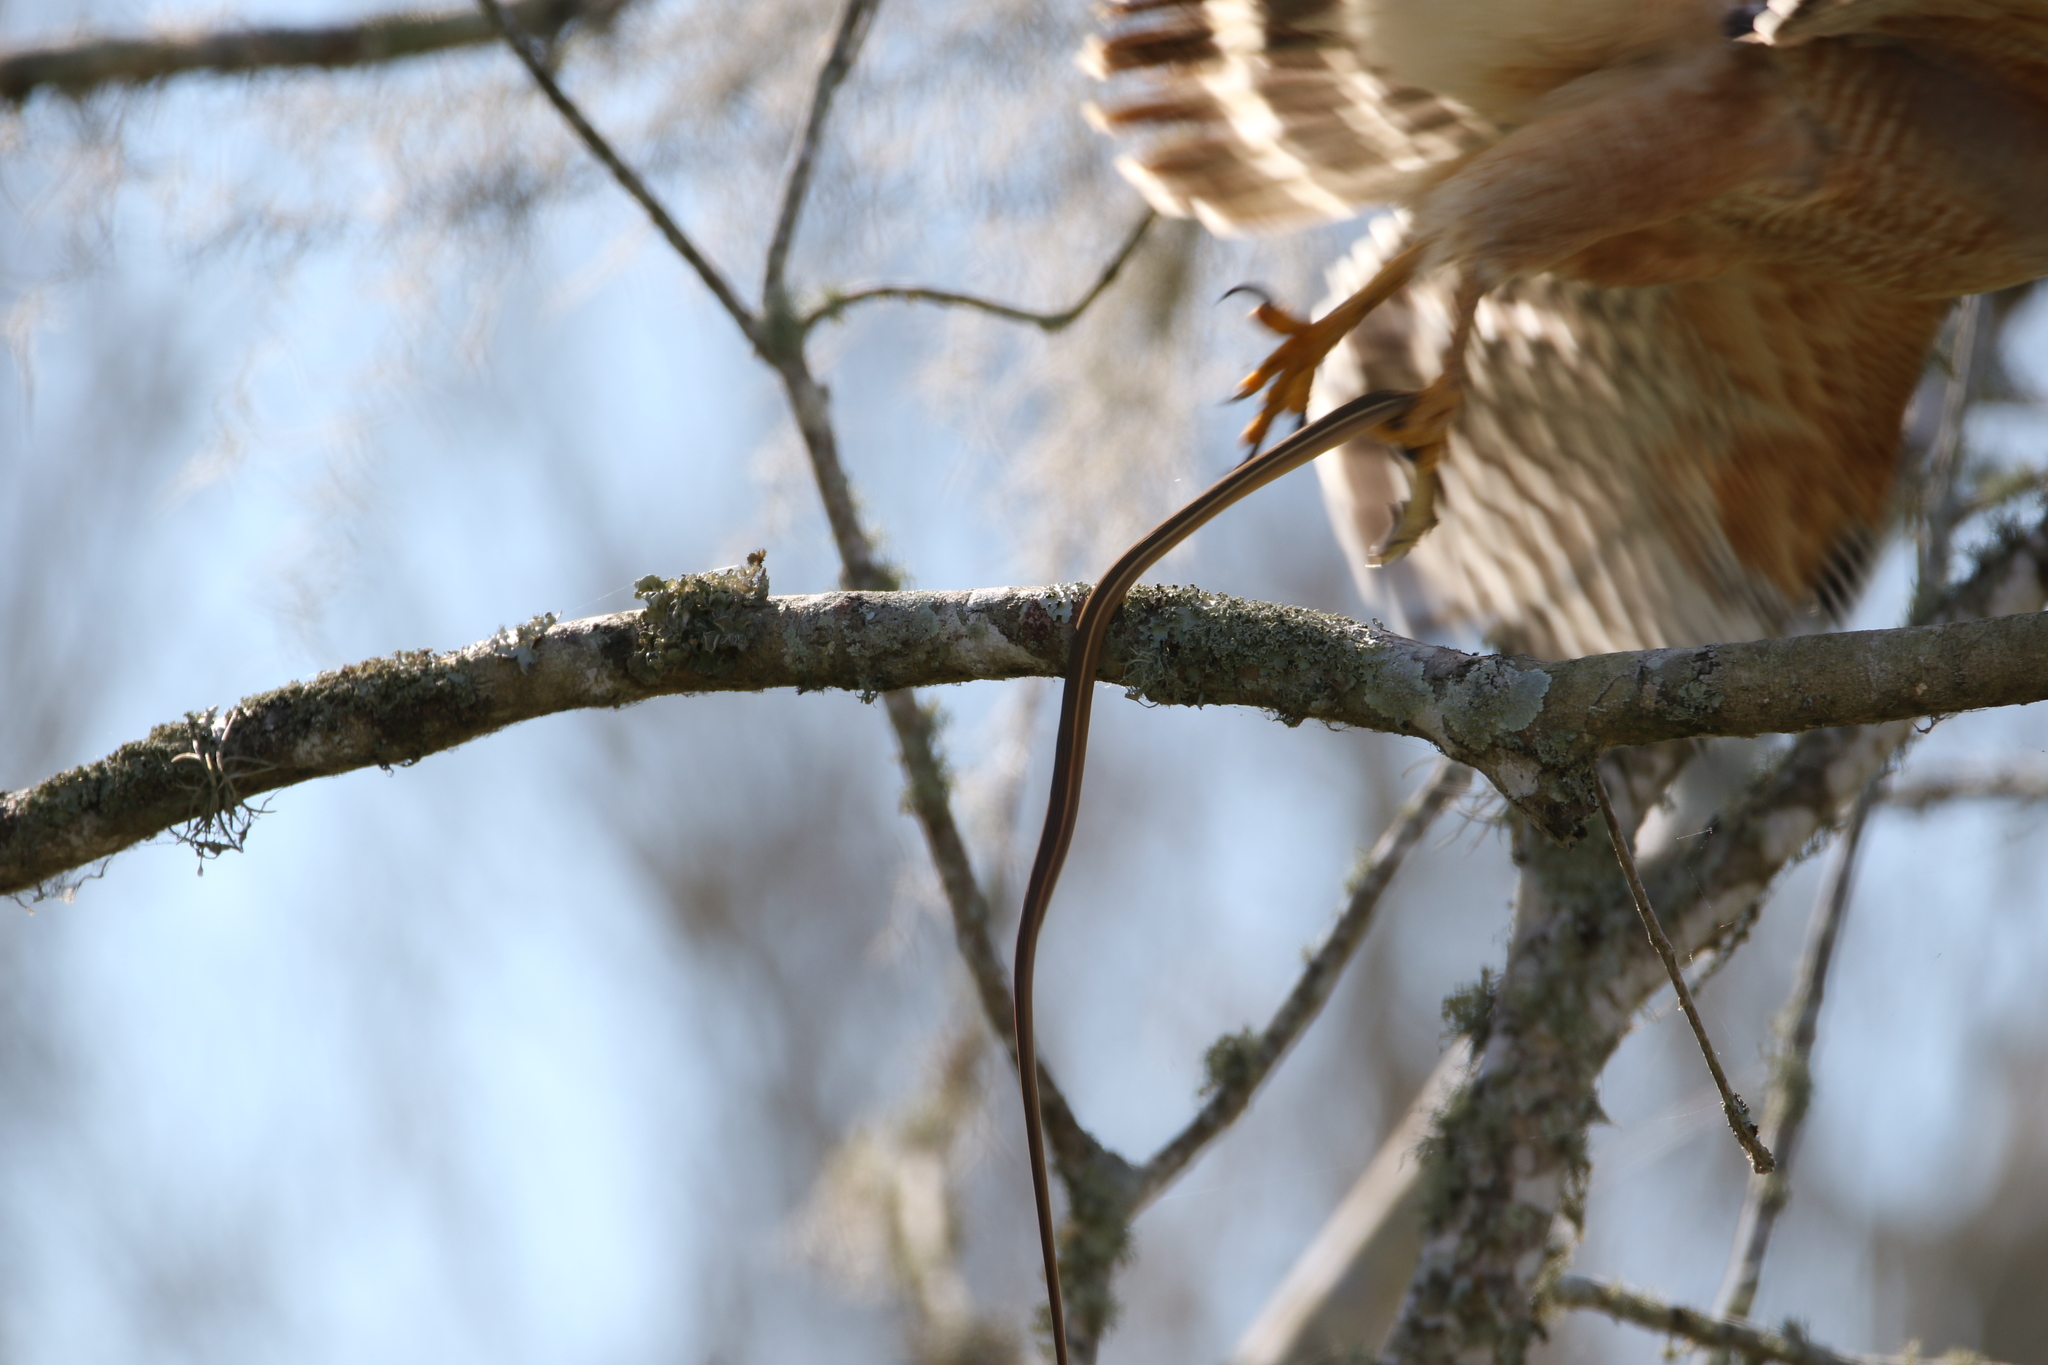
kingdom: Animalia
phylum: Chordata
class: Squamata
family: Colubridae
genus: Thamnophis
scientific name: Thamnophis saurita
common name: Eastern ribbonsnake
